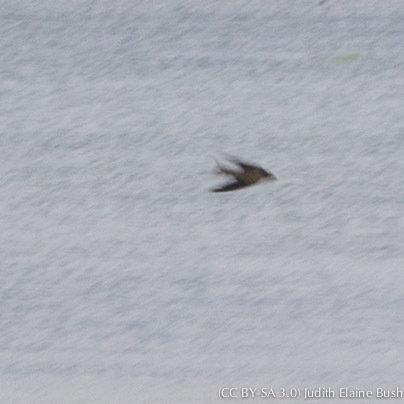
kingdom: Animalia
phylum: Chordata
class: Aves
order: Passeriformes
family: Hirundinidae
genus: Hirundo
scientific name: Hirundo rustica
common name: Barn swallow
